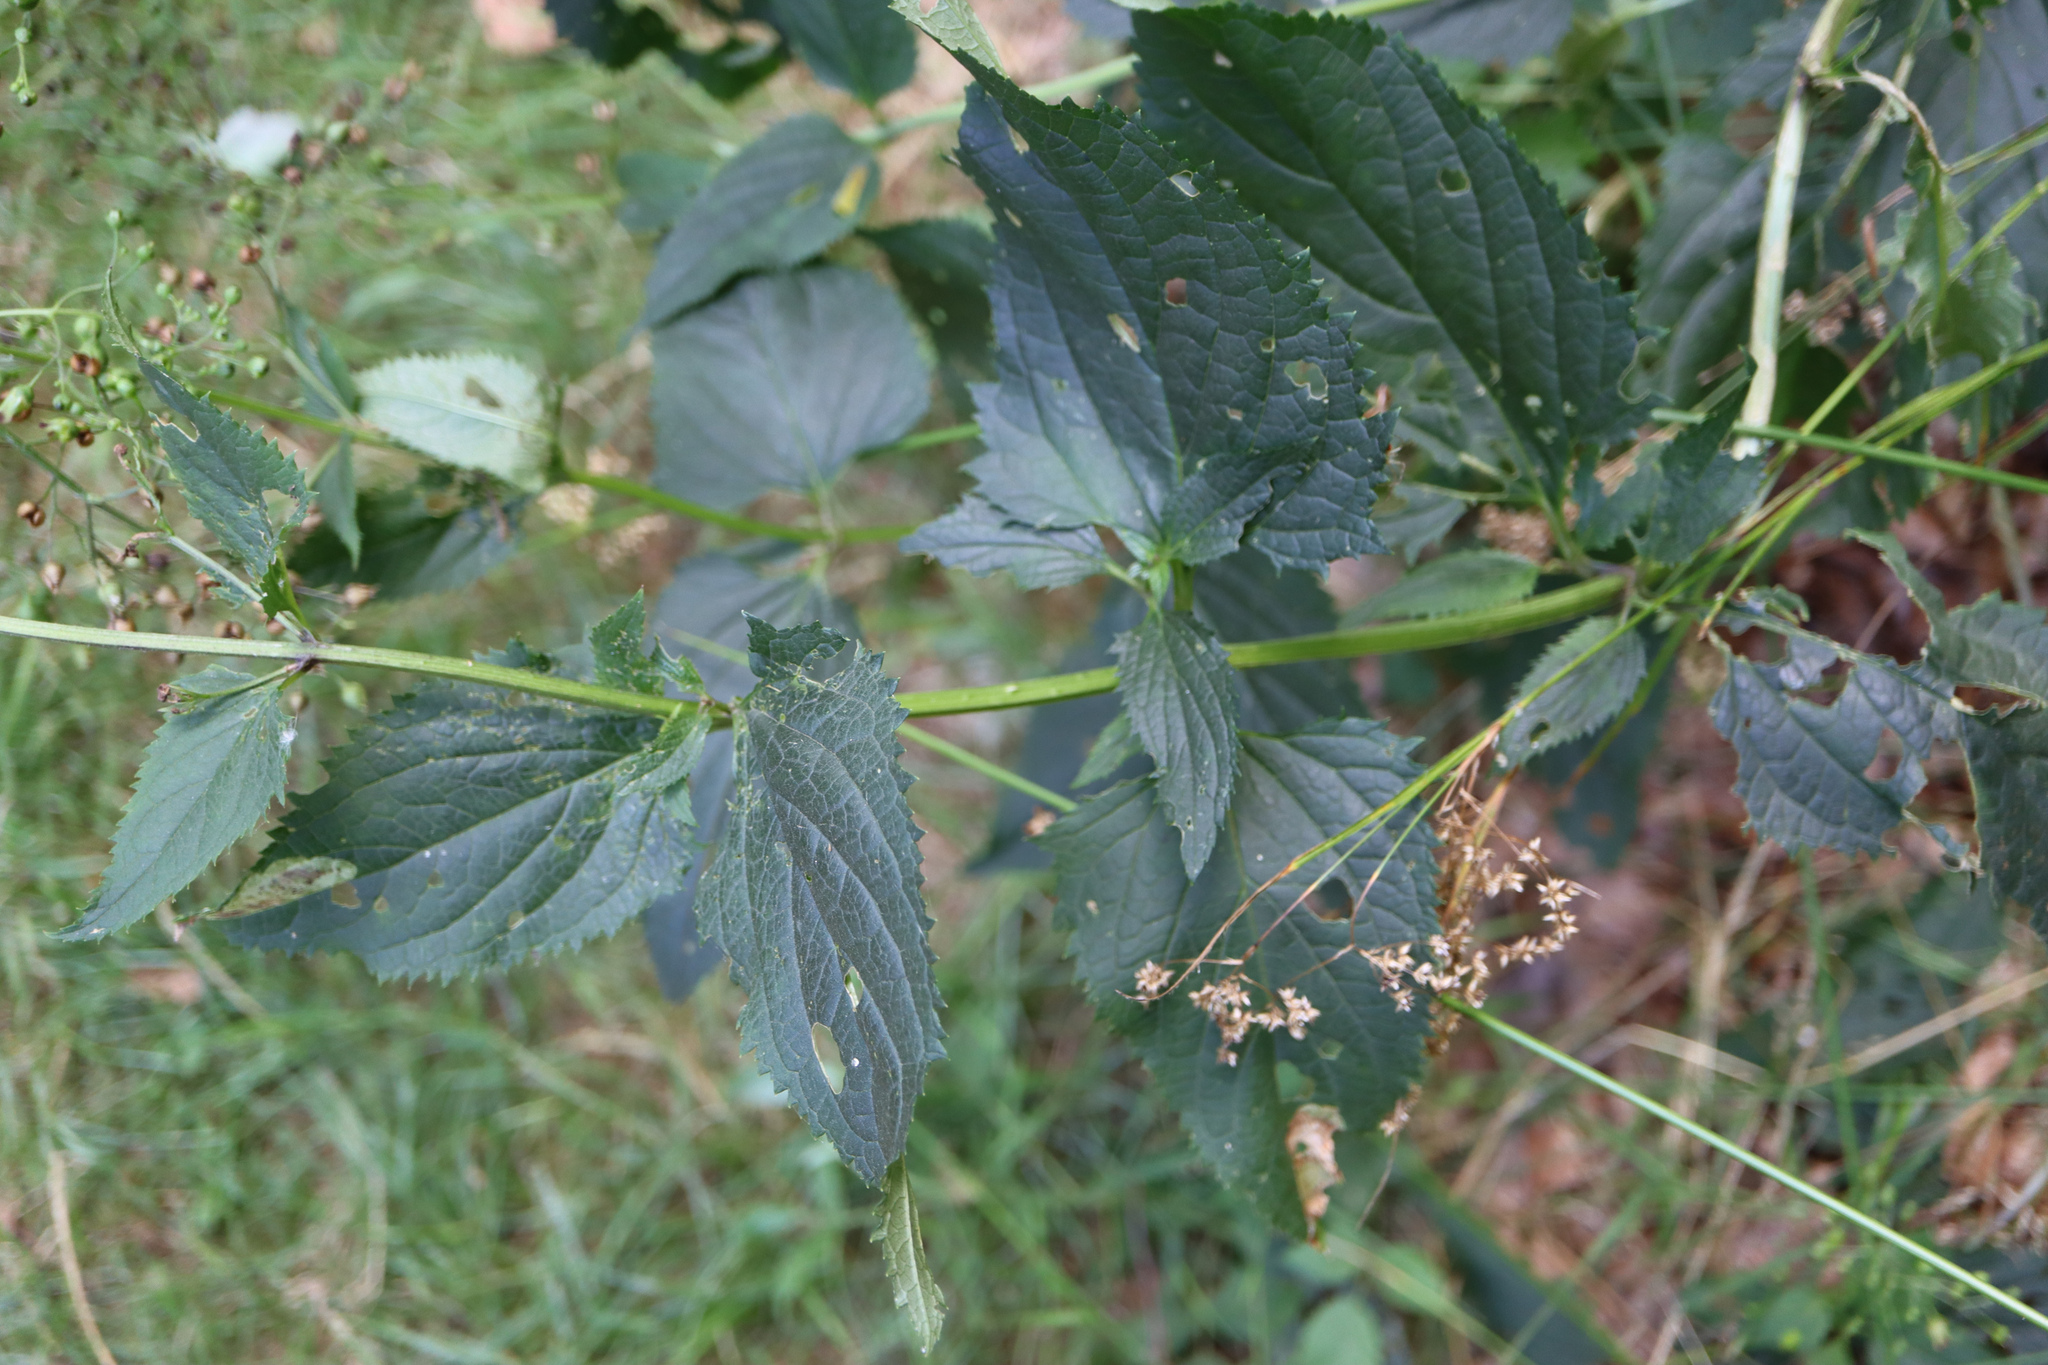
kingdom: Plantae
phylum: Tracheophyta
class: Magnoliopsida
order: Lamiales
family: Scrophulariaceae
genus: Scrophularia
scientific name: Scrophularia nodosa
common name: Common figwort
